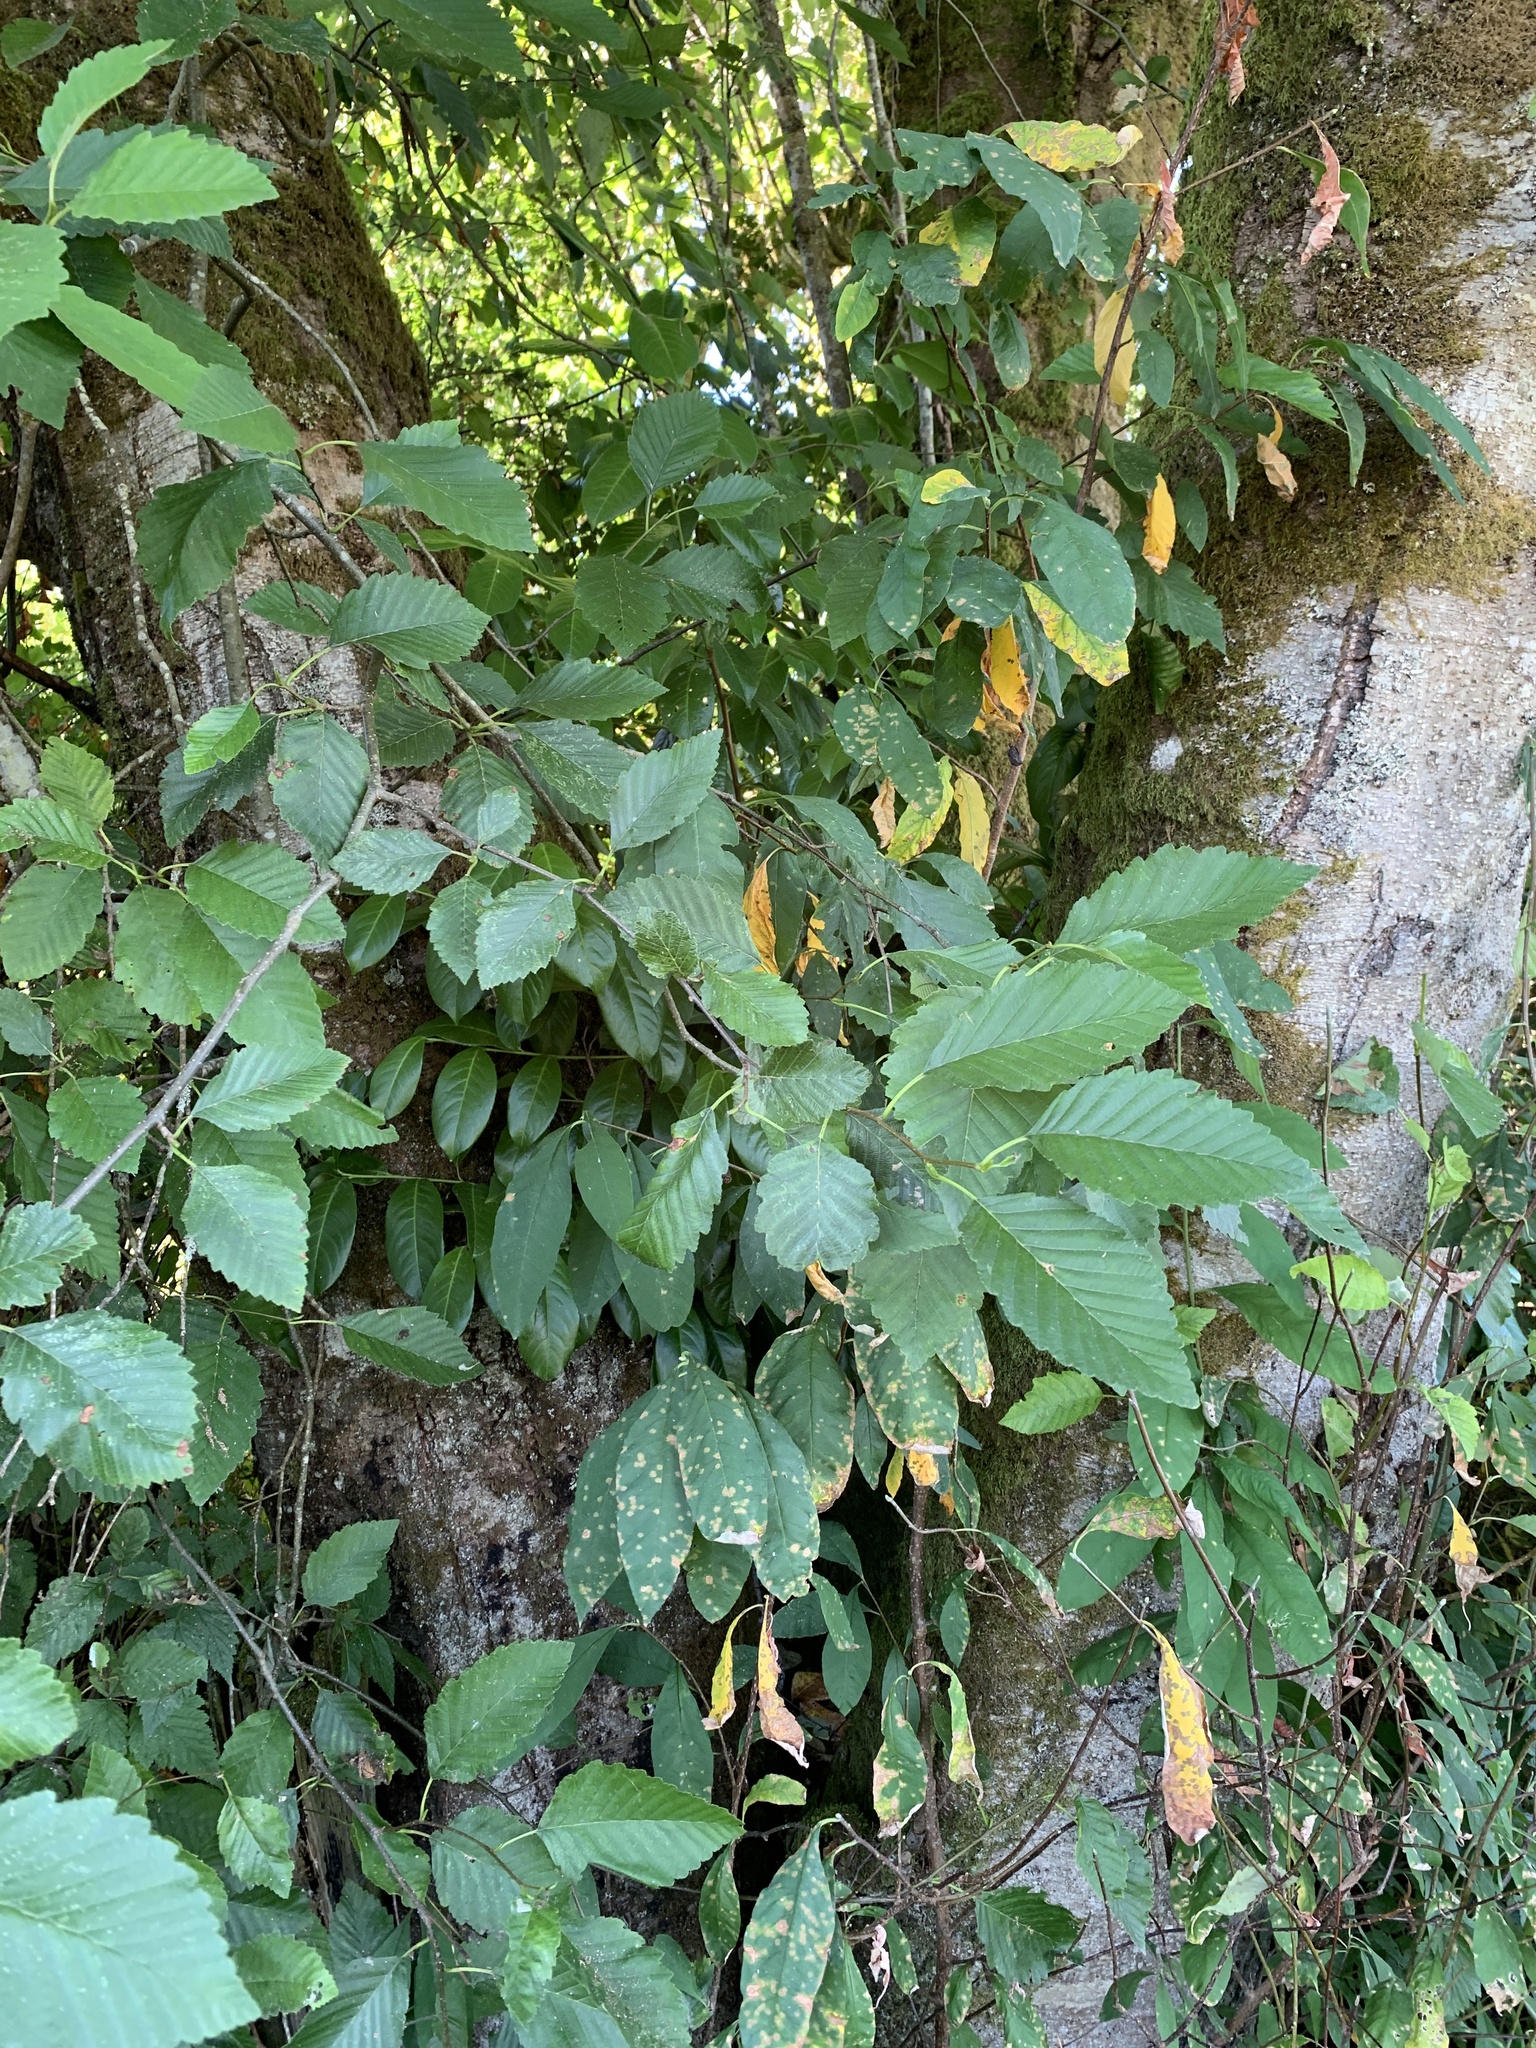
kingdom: Plantae
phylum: Tracheophyta
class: Magnoliopsida
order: Fagales
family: Betulaceae
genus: Alnus
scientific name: Alnus rubra
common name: Red alder
